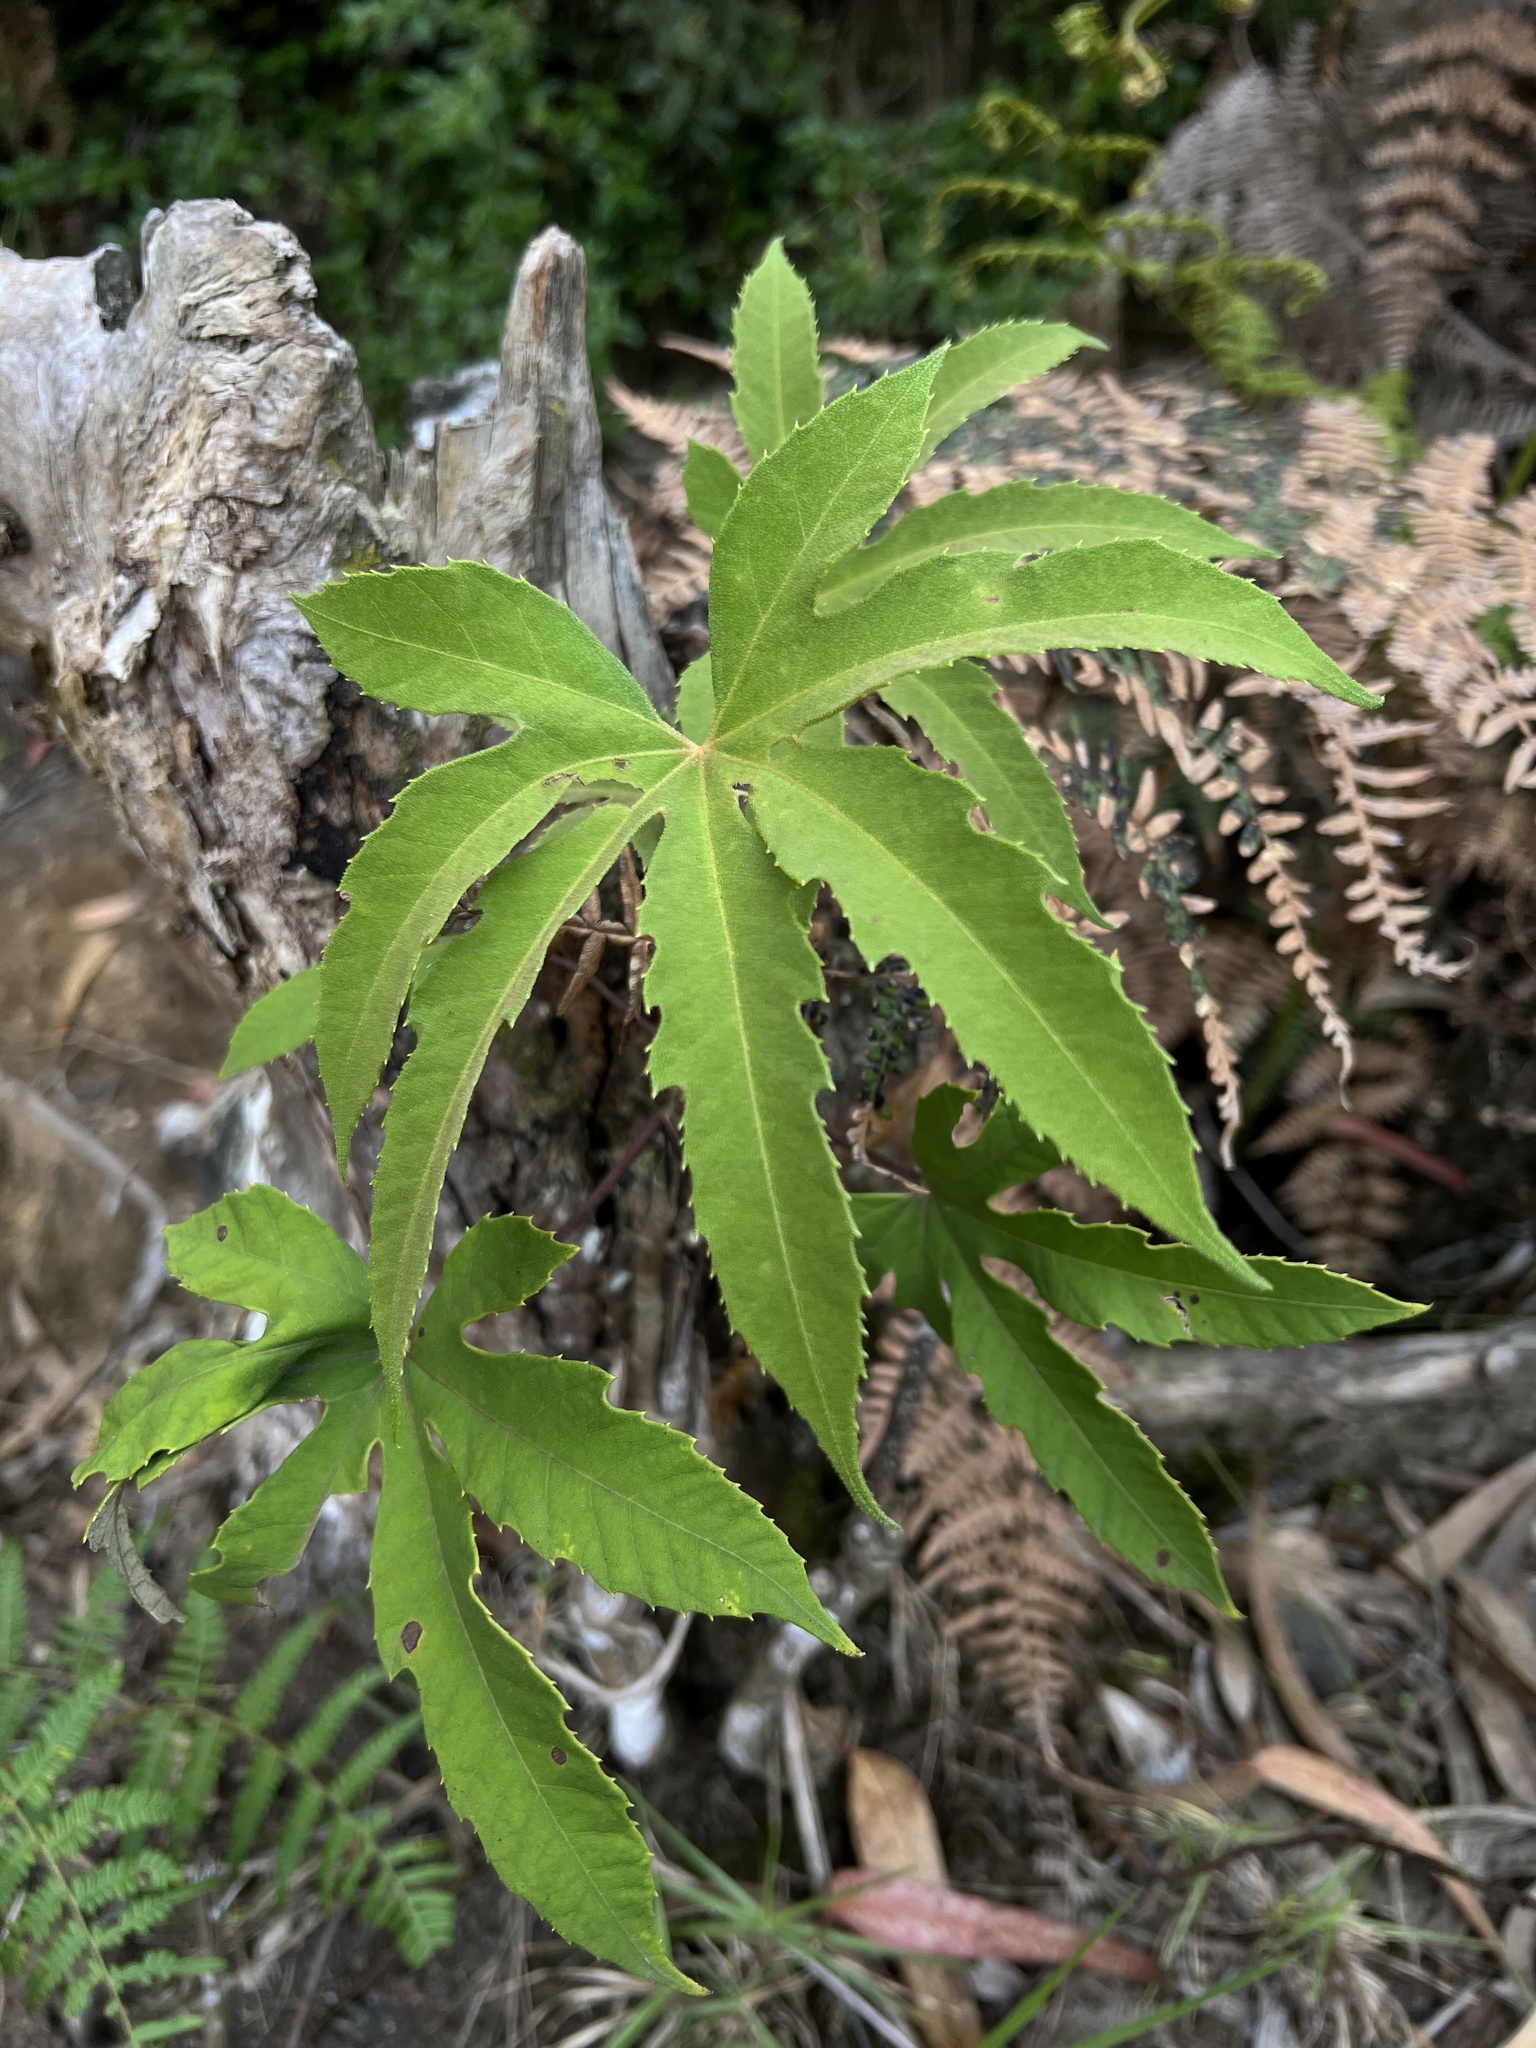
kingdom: Plantae
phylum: Tracheophyta
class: Magnoliopsida
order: Apiales
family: Araliaceae
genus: Oreopanax
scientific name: Oreopanax incisus
